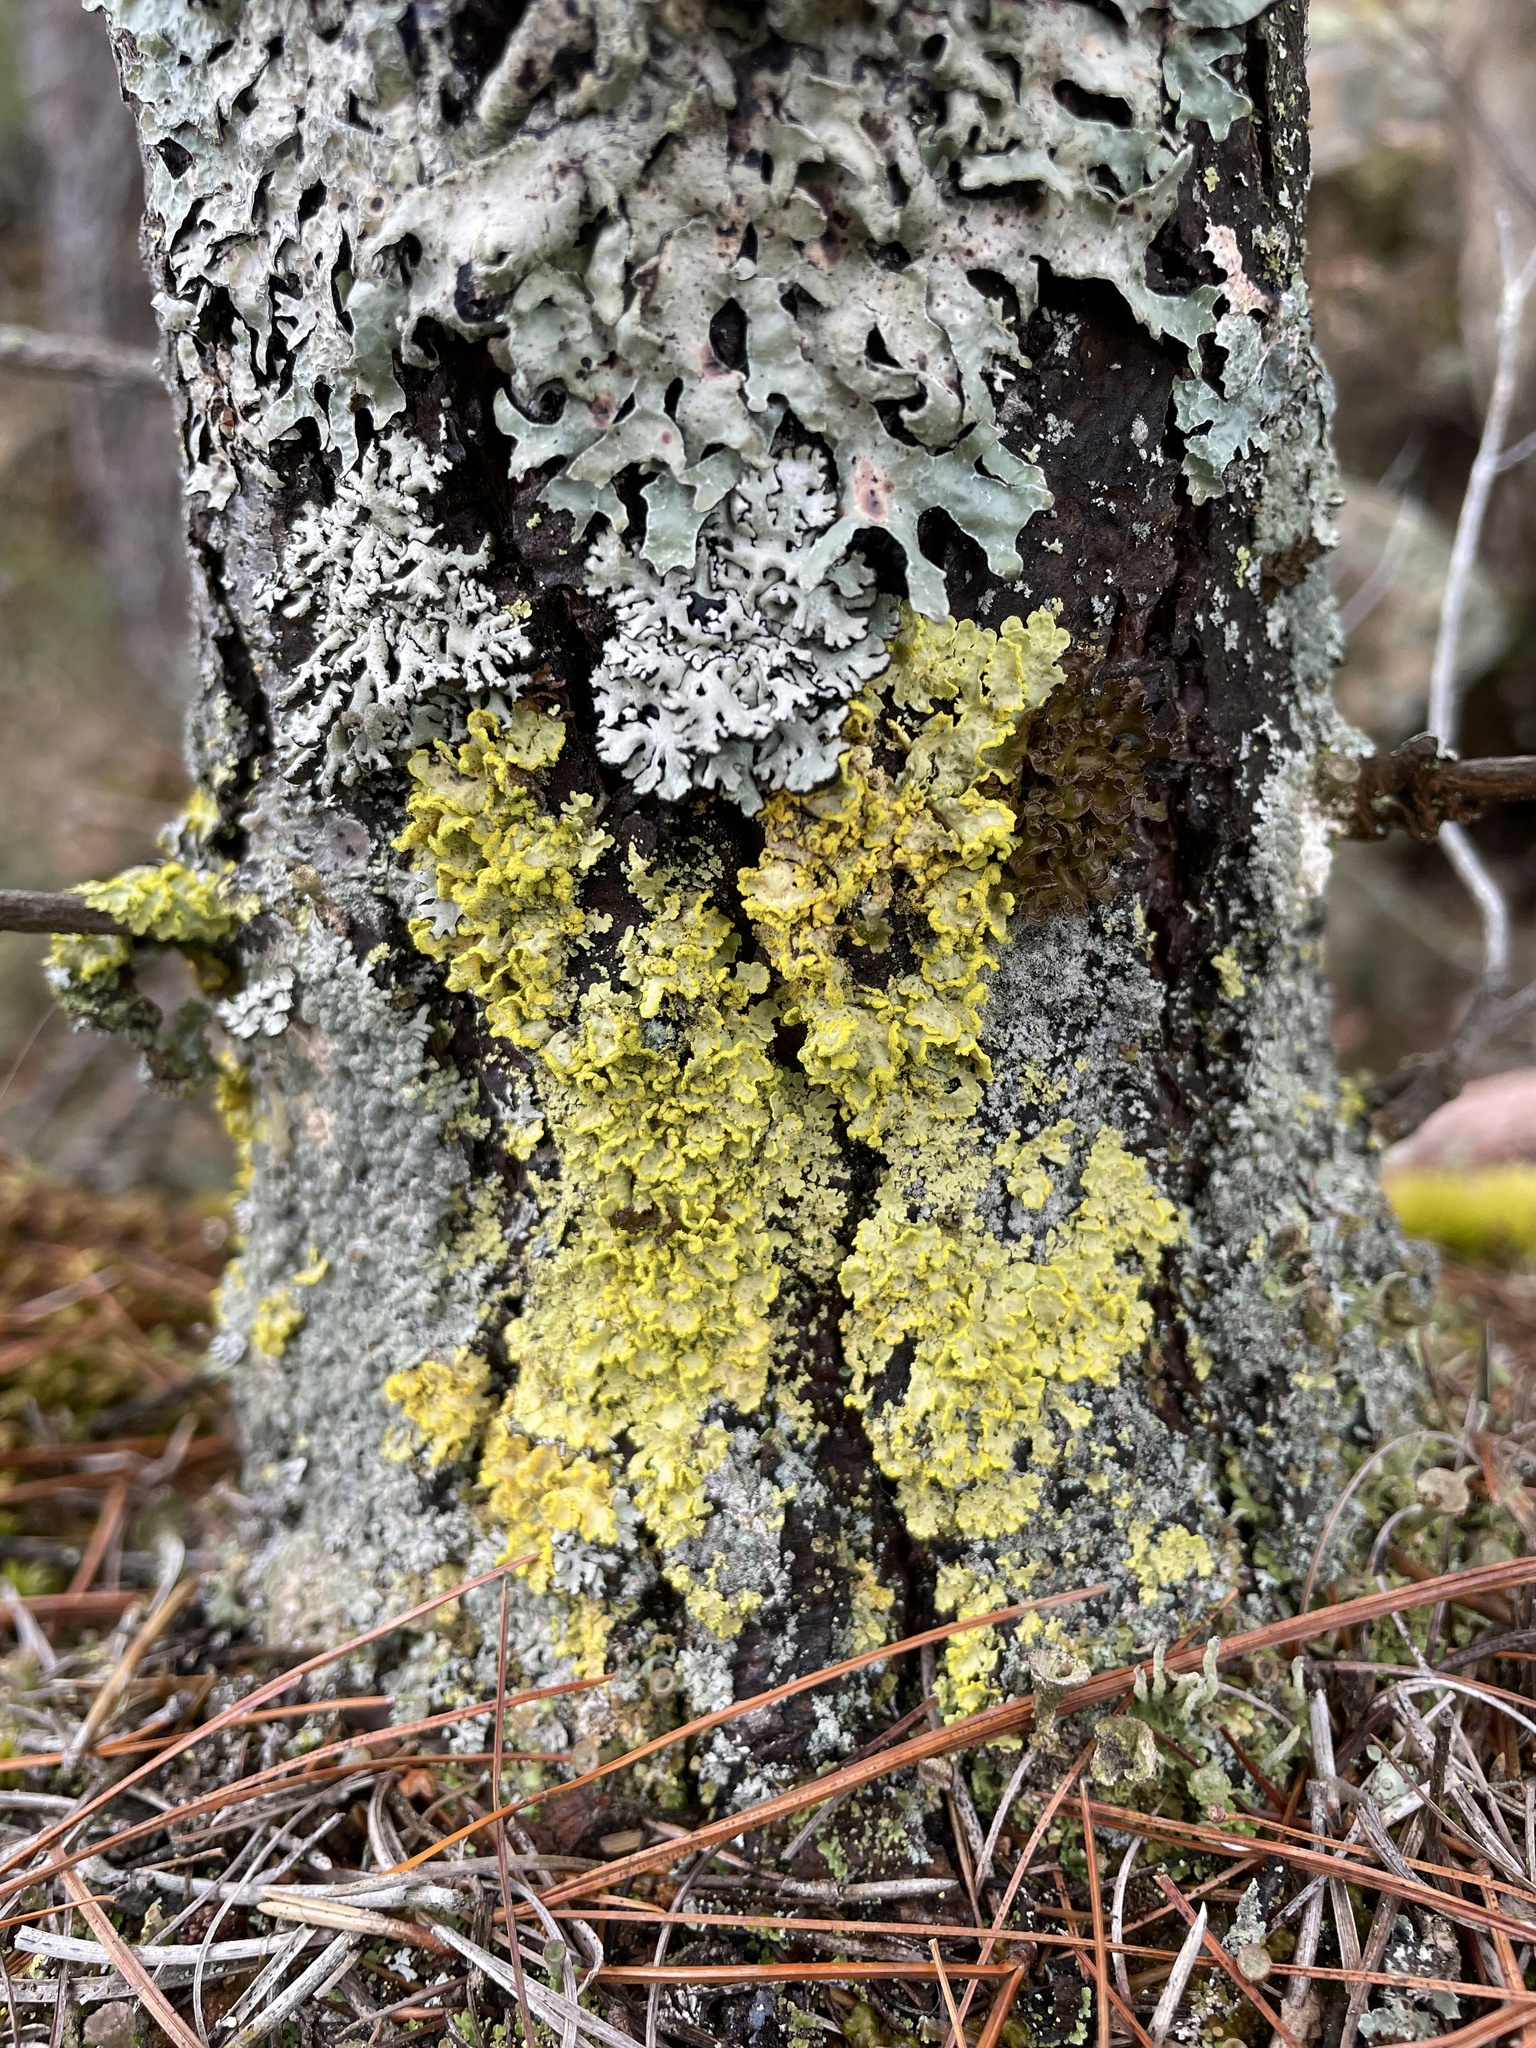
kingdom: Fungi
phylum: Ascomycota
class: Lecanoromycetes
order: Lecanorales
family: Parmeliaceae
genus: Vulpicida
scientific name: Vulpicida pinastri
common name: Powdered sunshine lichen
